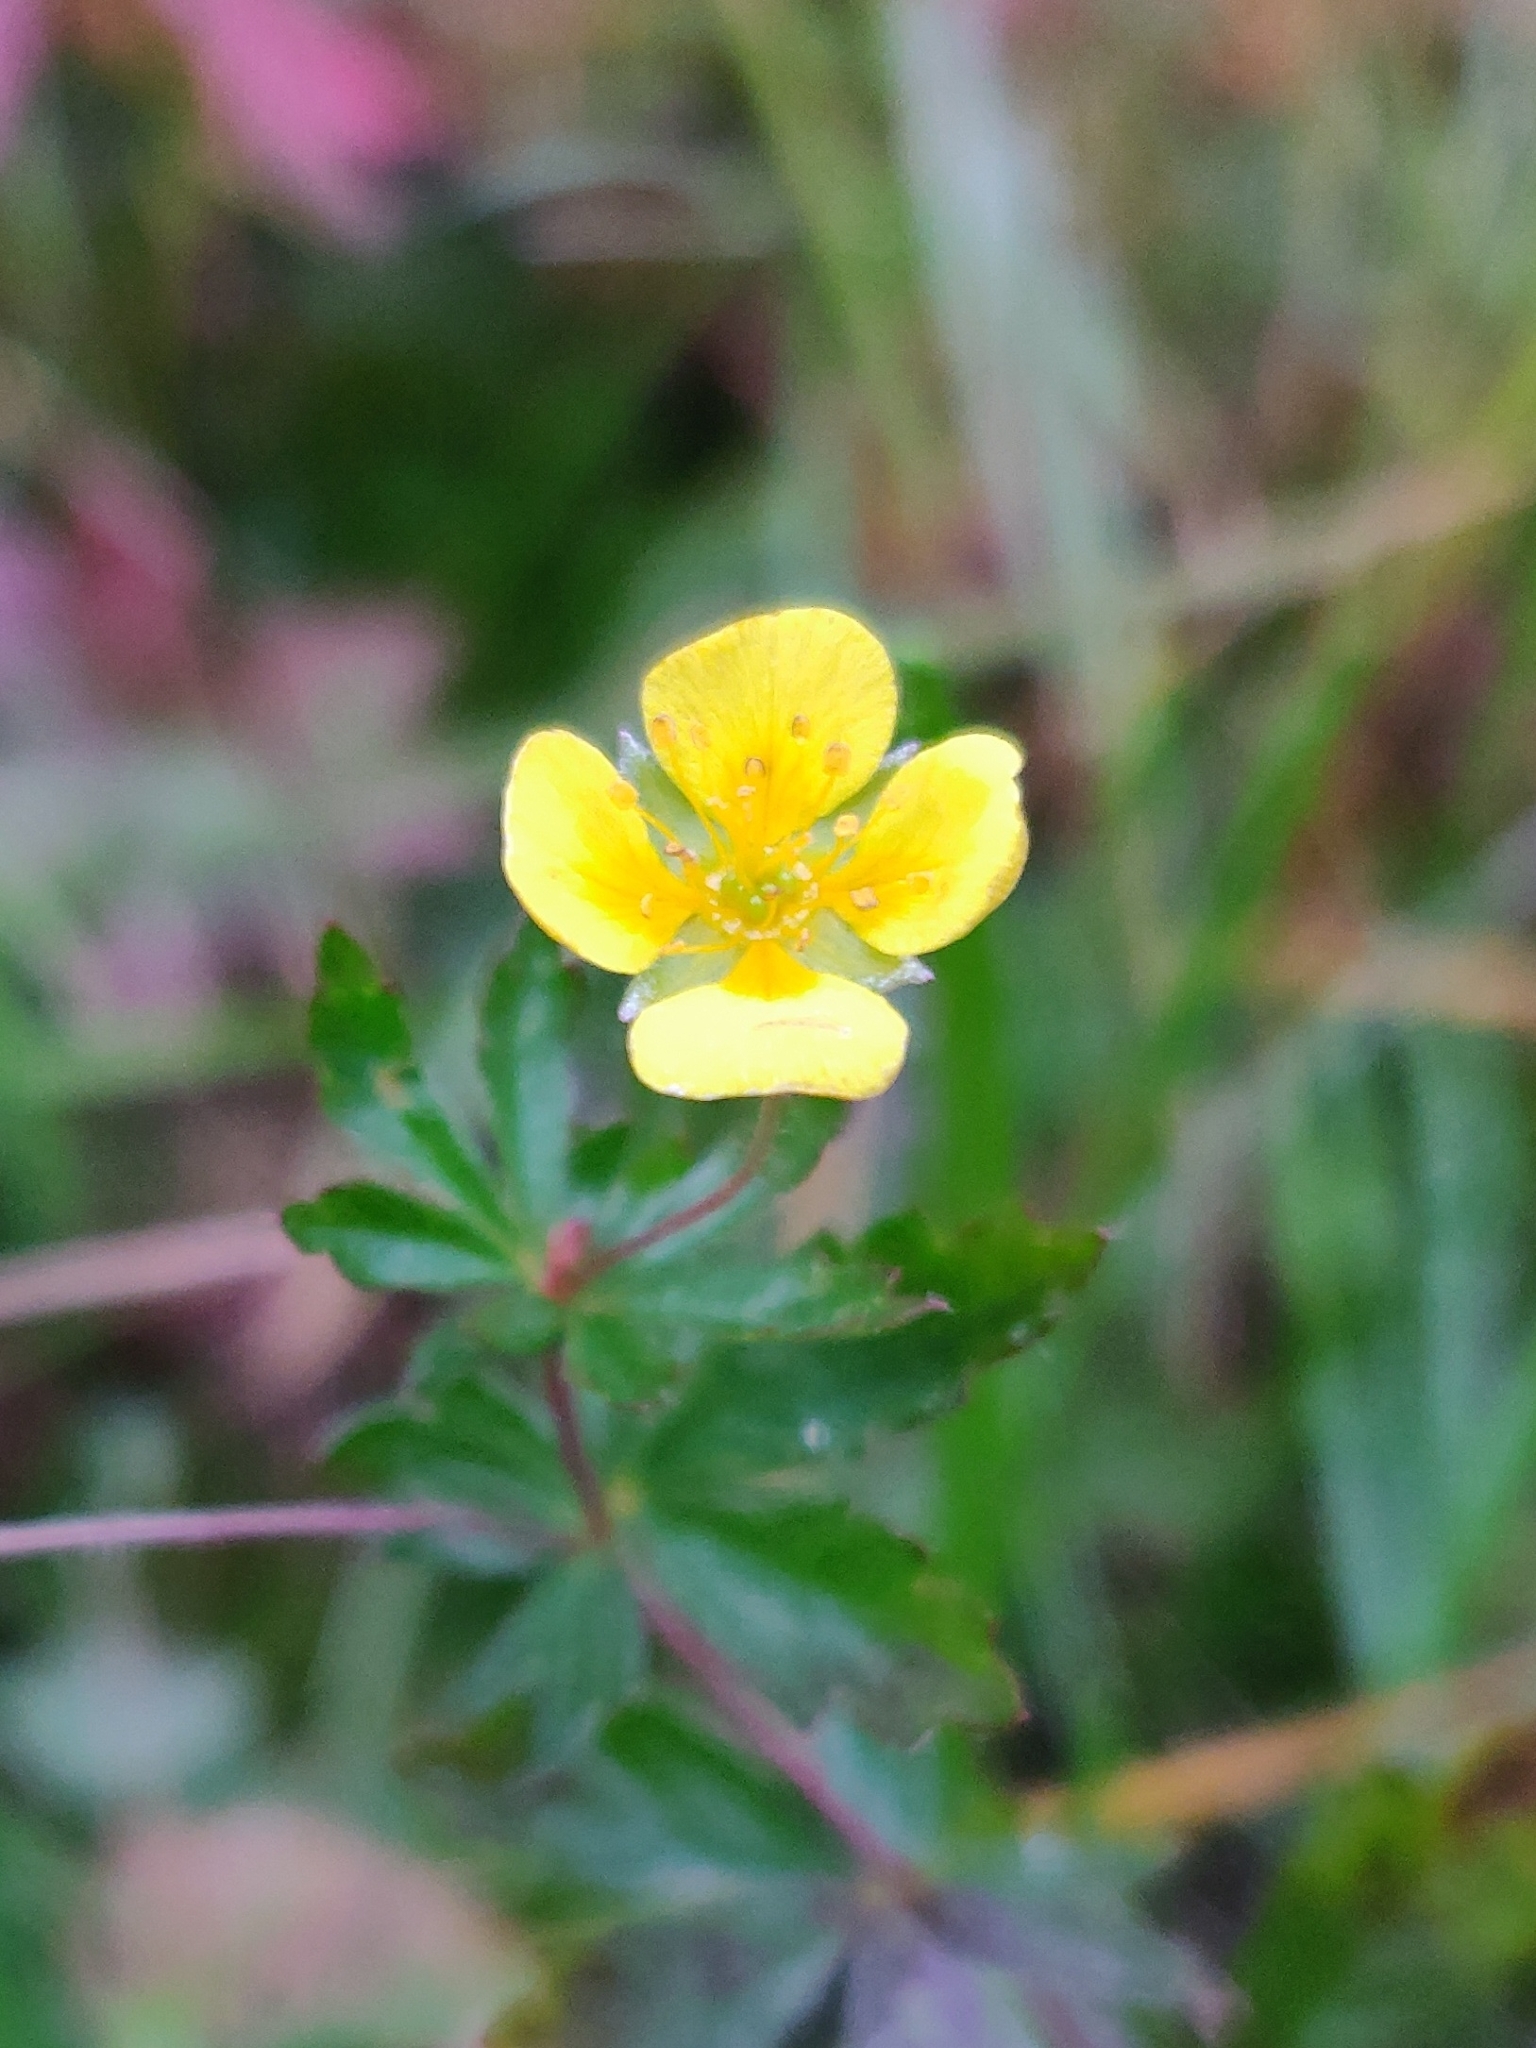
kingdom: Plantae
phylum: Tracheophyta
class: Magnoliopsida
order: Rosales
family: Rosaceae
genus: Potentilla
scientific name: Potentilla erecta
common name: Tormentil
